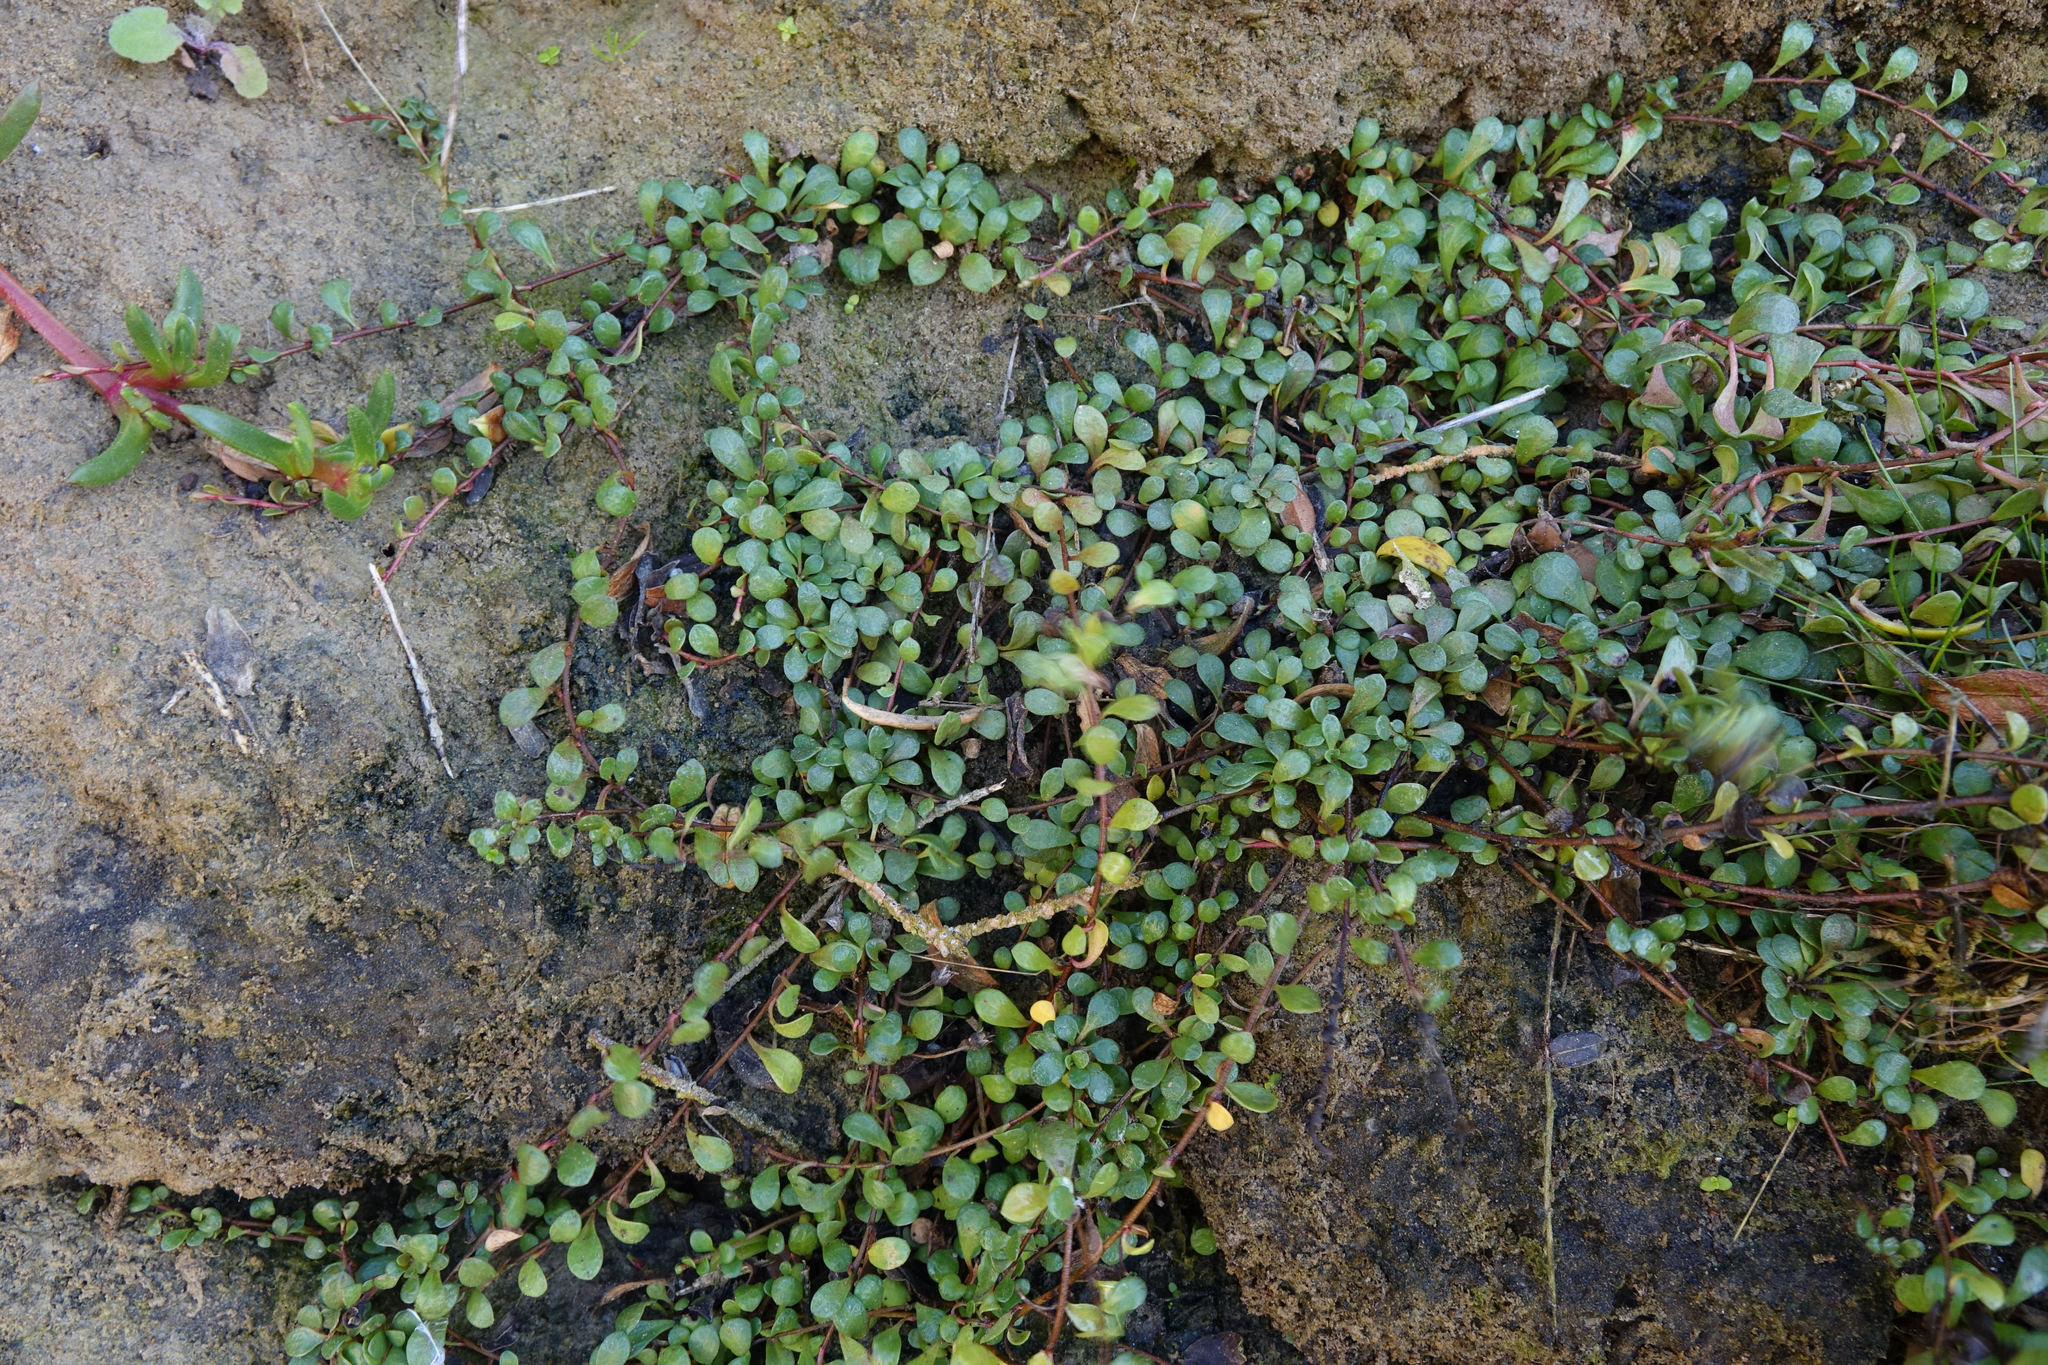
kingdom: Plantae
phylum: Tracheophyta
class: Magnoliopsida
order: Ericales
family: Primulaceae
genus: Samolus
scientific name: Samolus repens
